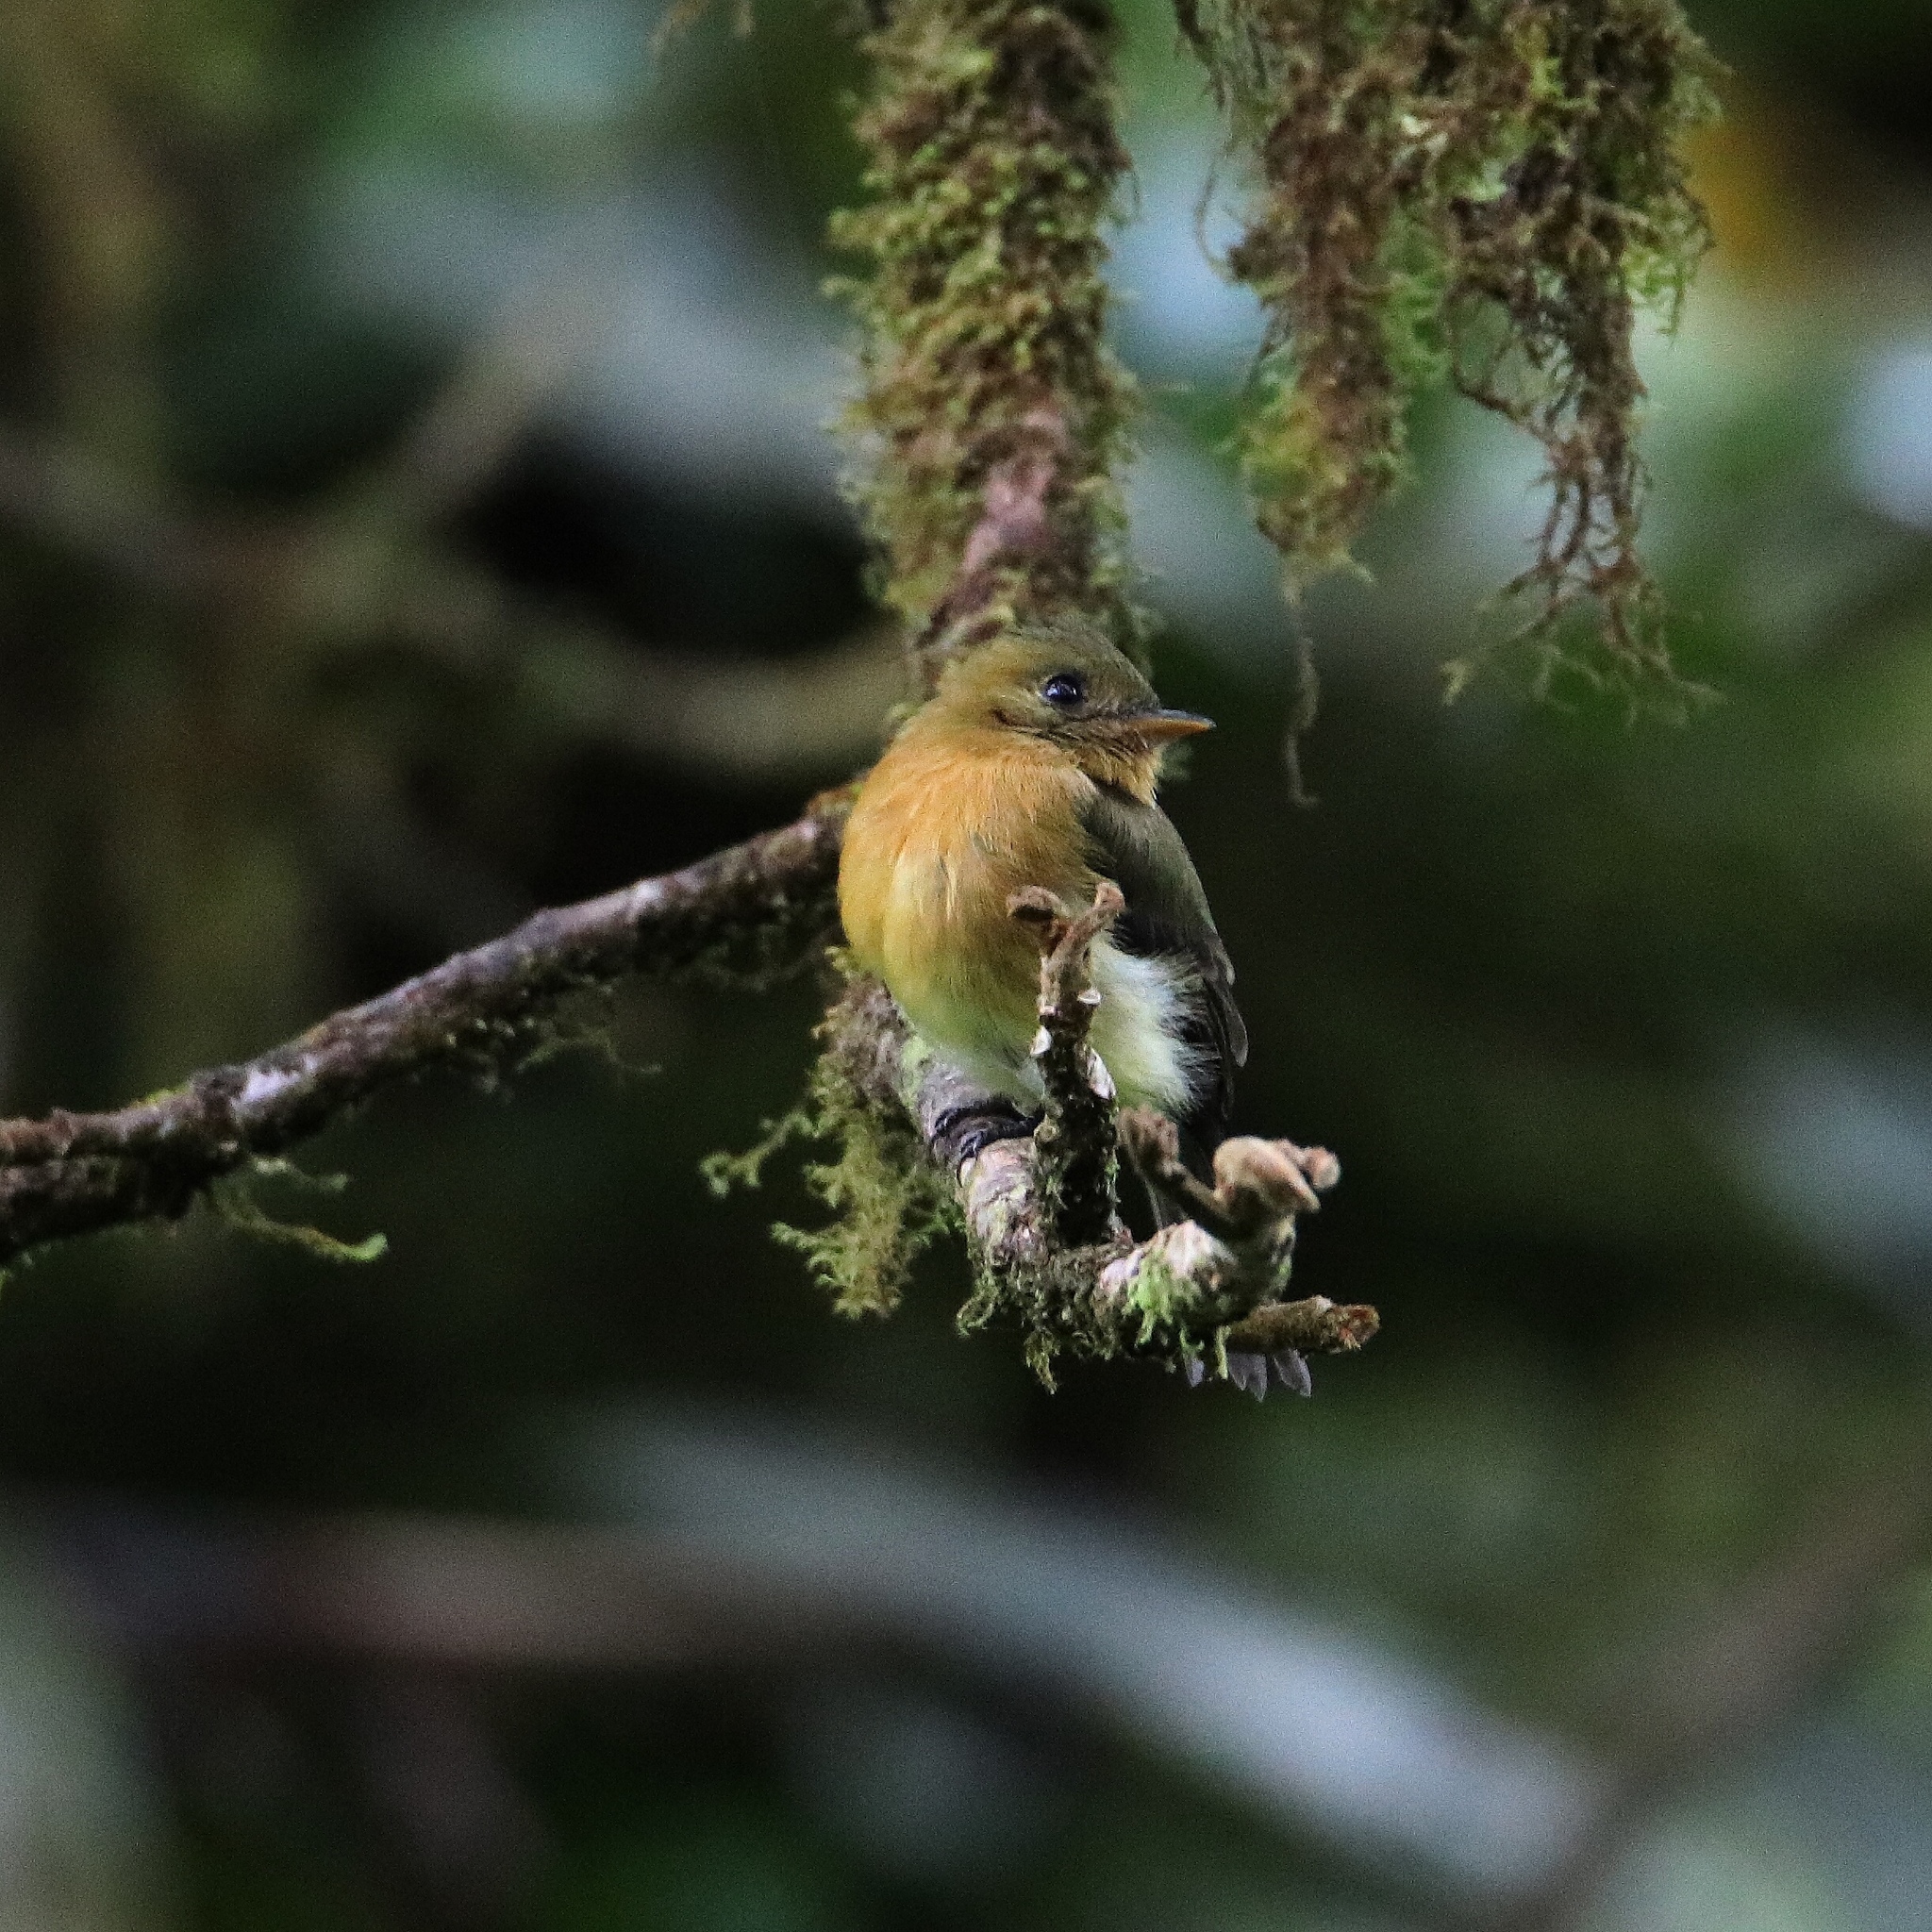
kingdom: Animalia
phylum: Chordata
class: Aves
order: Passeriformes
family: Tyrannidae
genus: Mitrephanes
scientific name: Mitrephanes phaeocercus
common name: Northern tufted flycatcher
